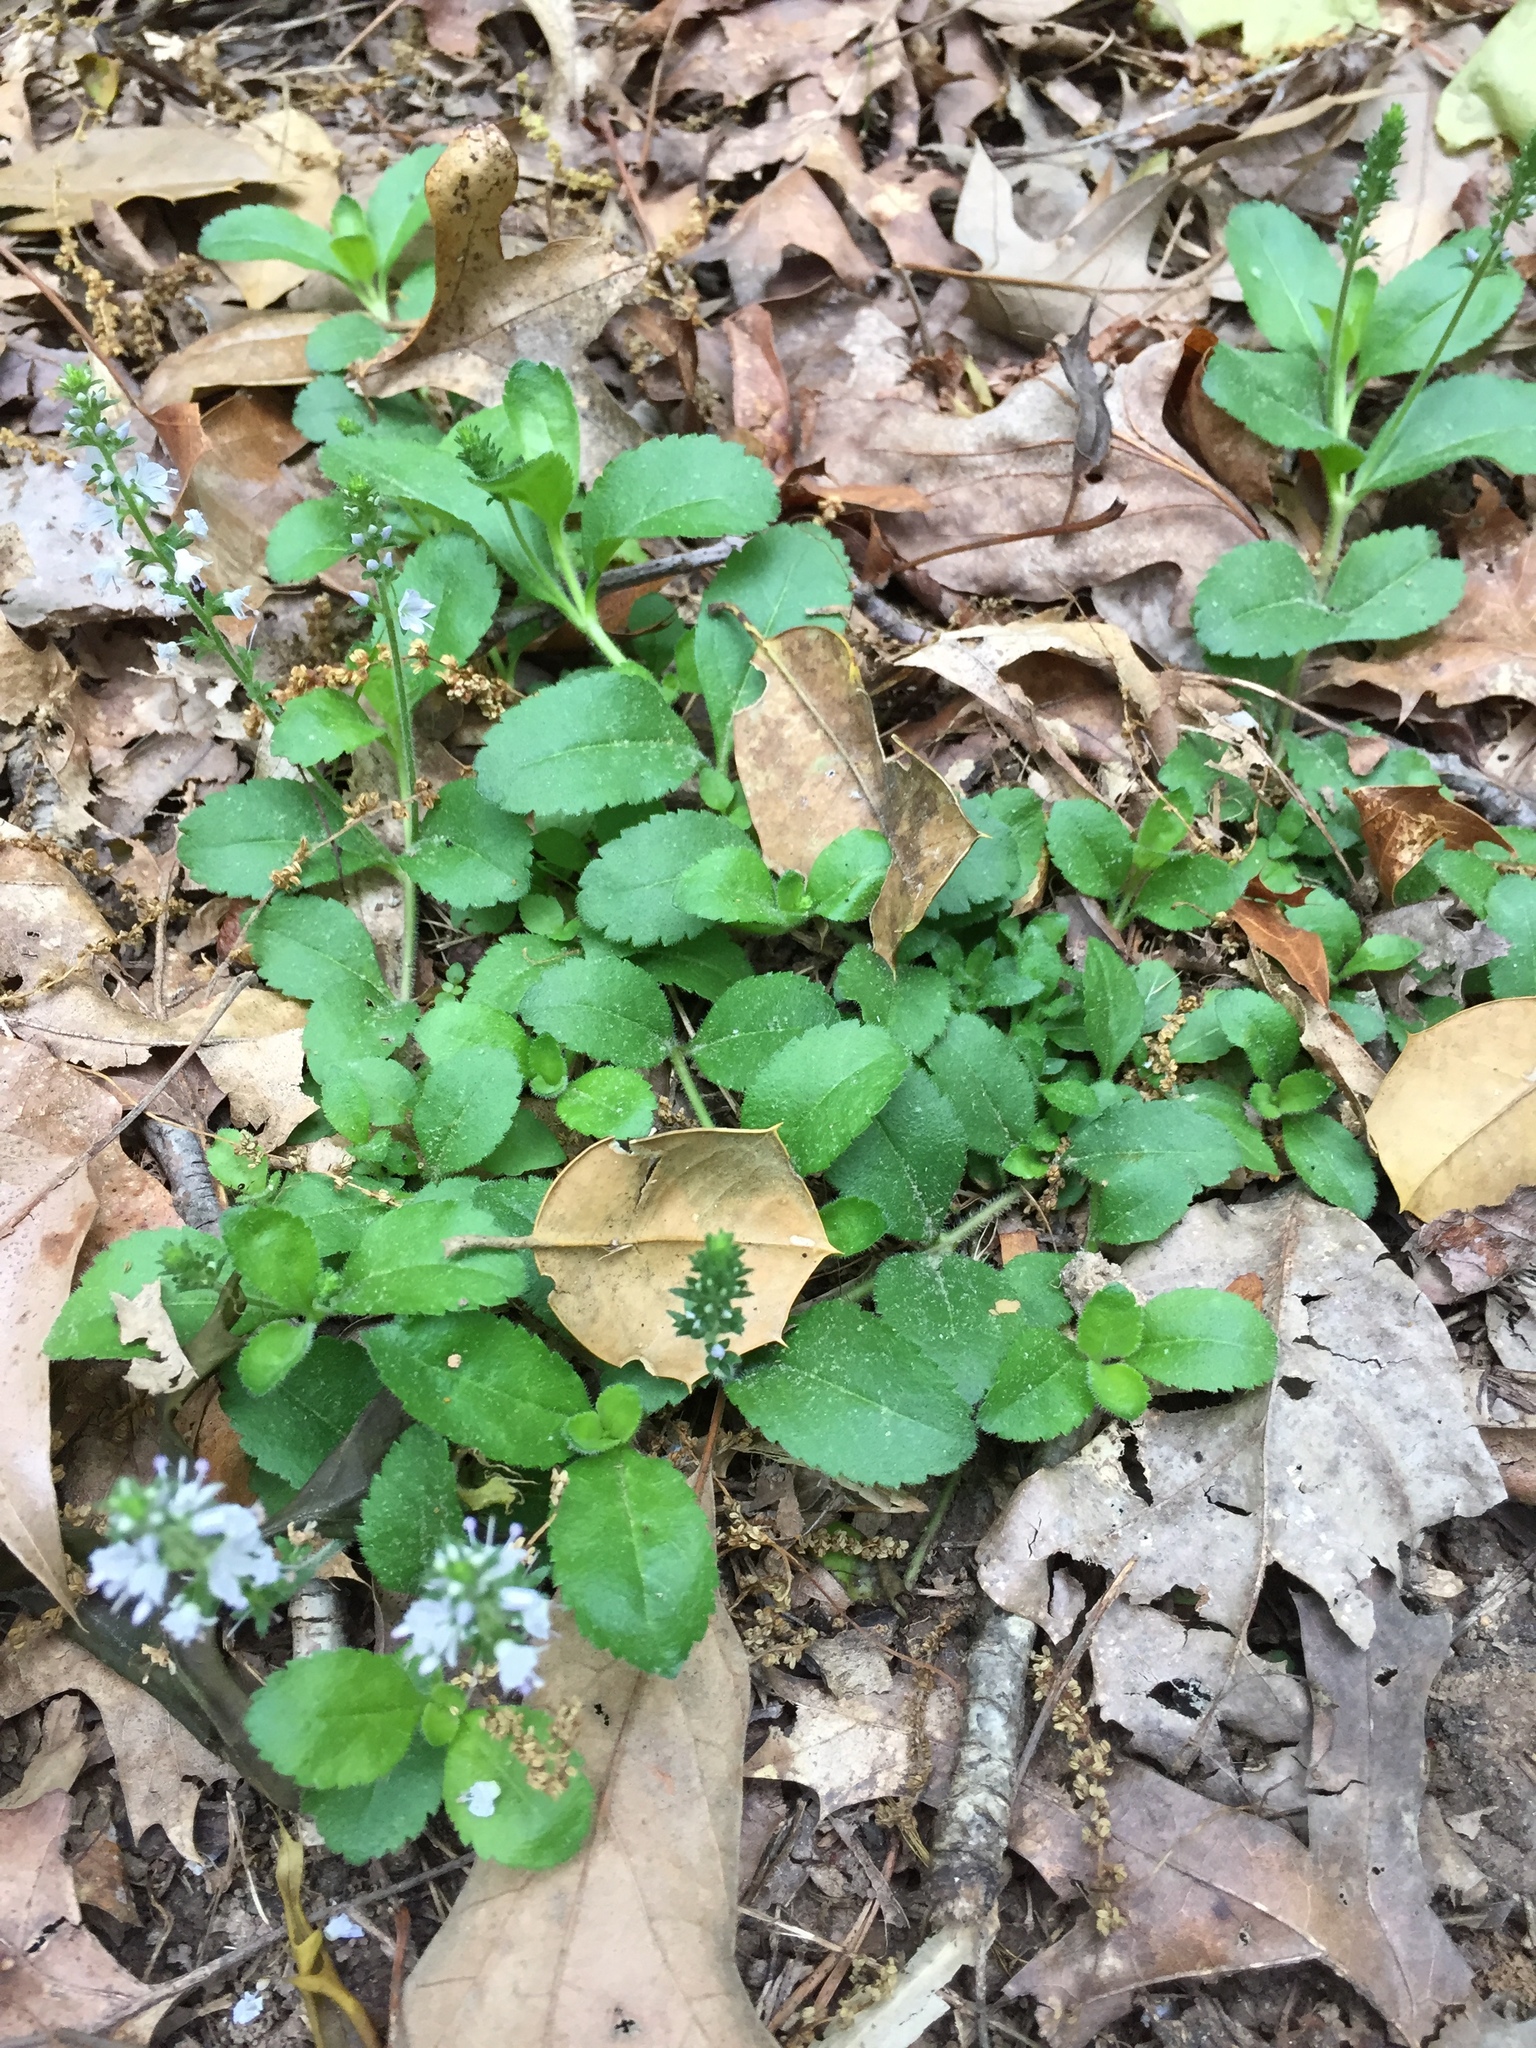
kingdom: Plantae
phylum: Tracheophyta
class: Magnoliopsida
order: Lamiales
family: Plantaginaceae
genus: Veronica
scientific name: Veronica officinalis
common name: Common speedwell
